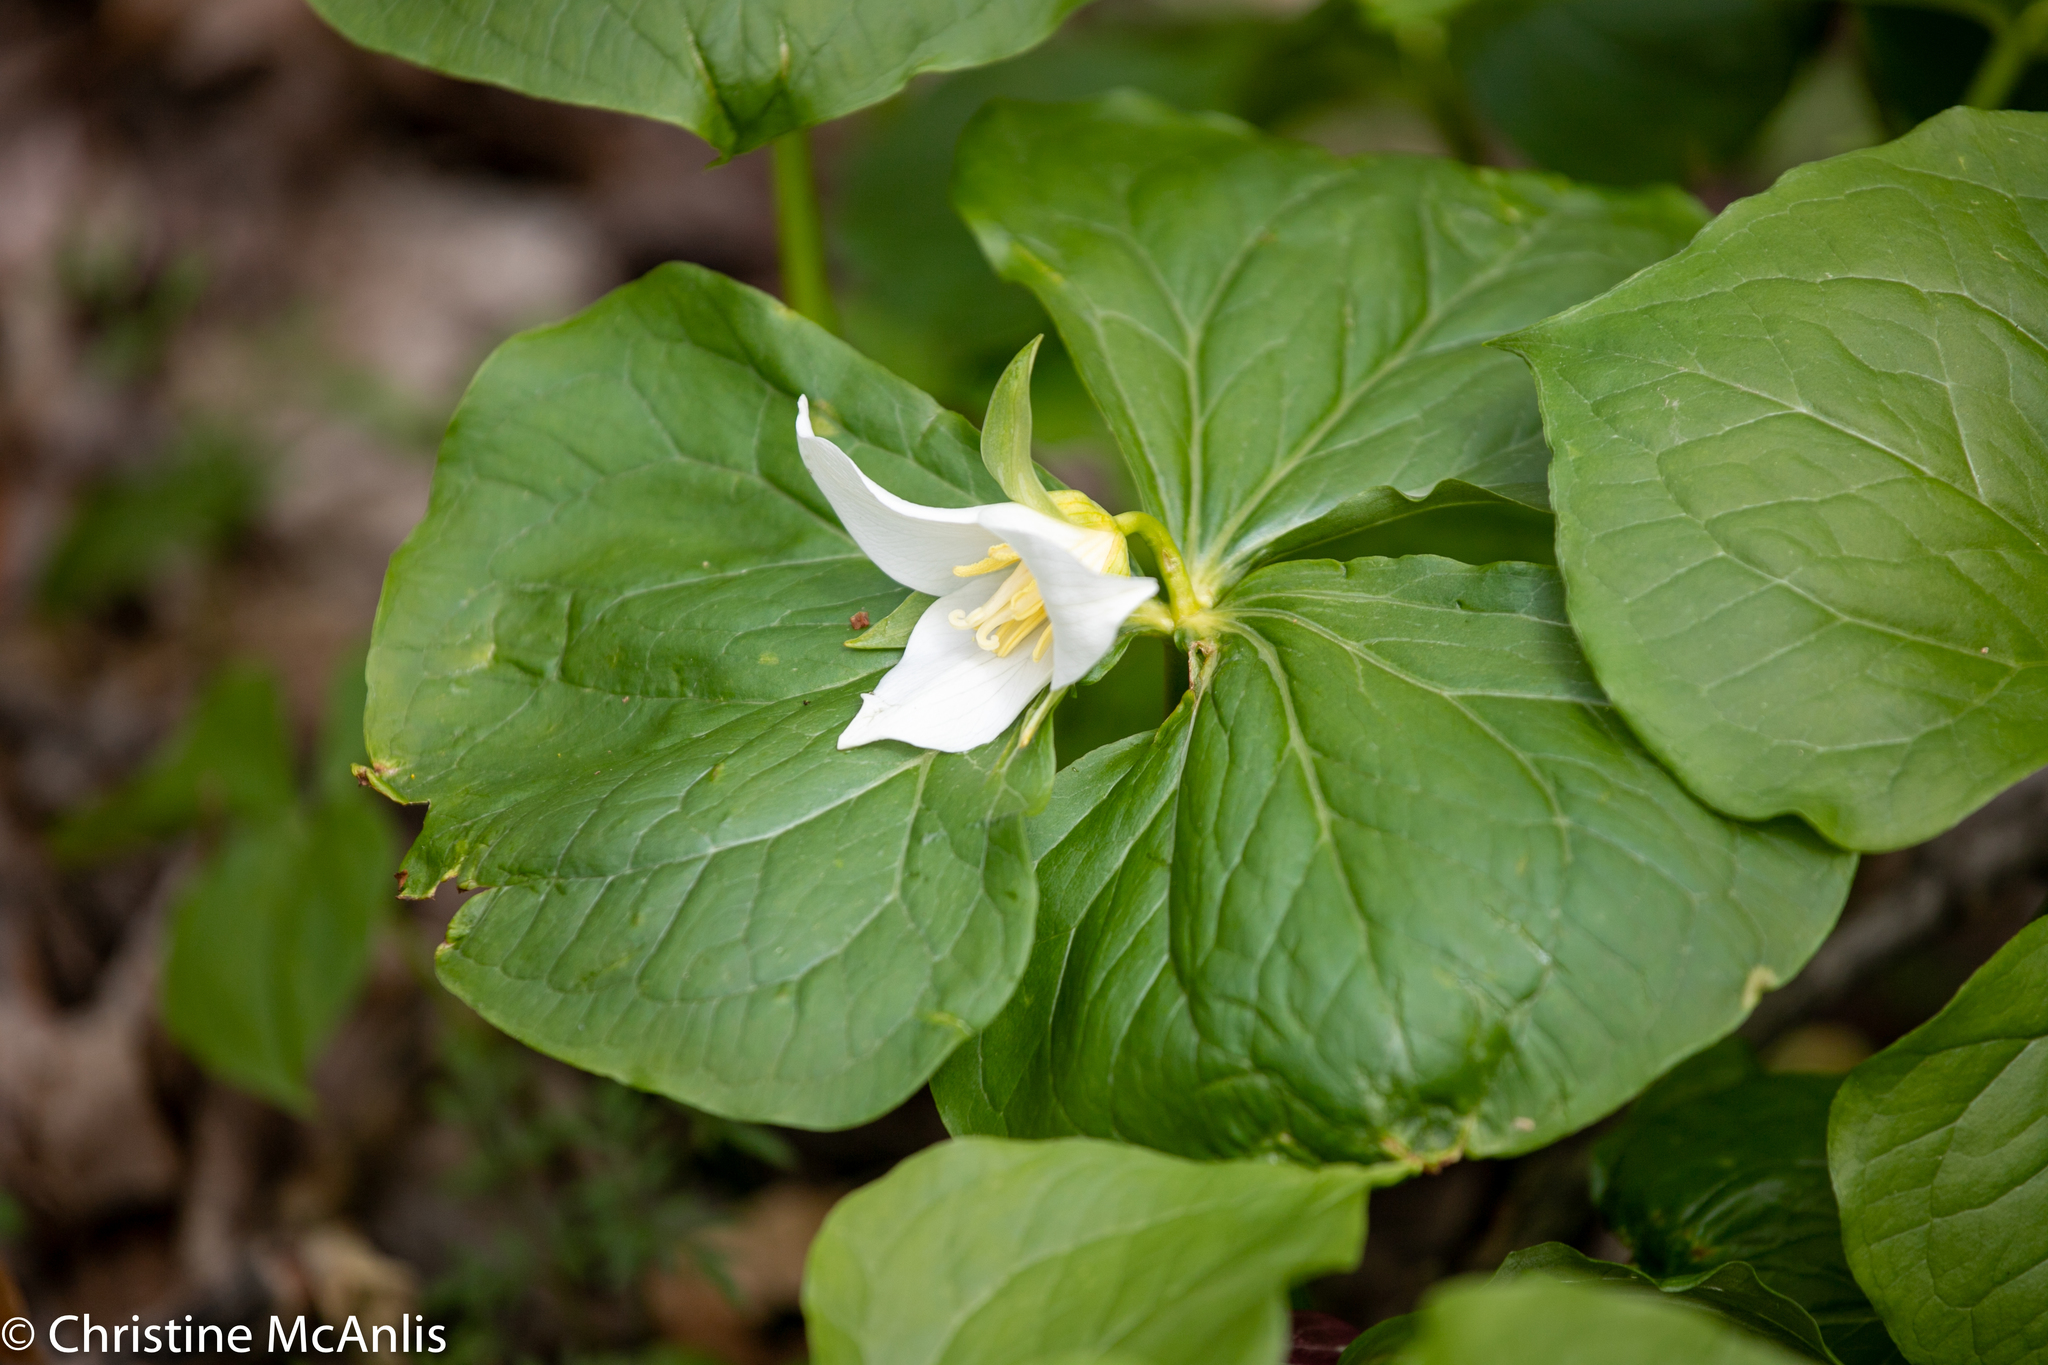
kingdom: Plantae
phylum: Tracheophyta
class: Liliopsida
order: Liliales
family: Melanthiaceae
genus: Trillium
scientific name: Trillium flexipes
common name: Drooping trillium
